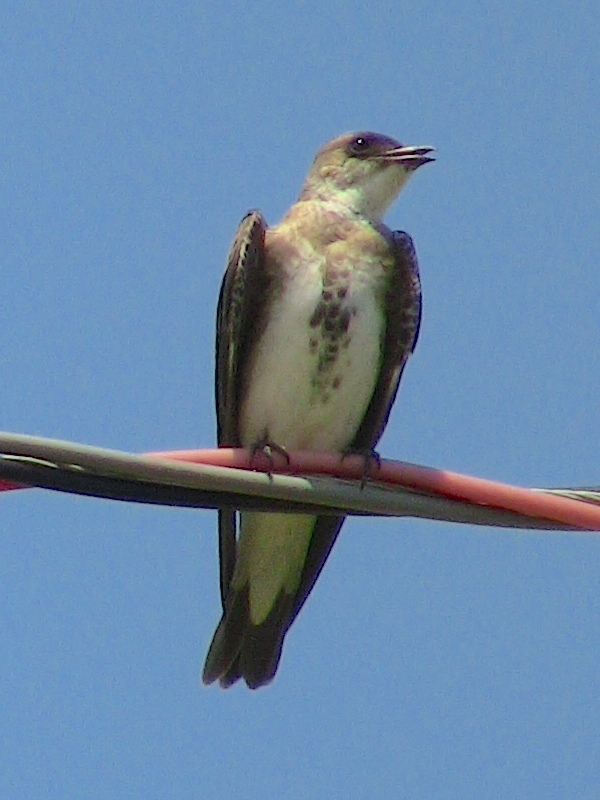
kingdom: Animalia
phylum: Chordata
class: Aves
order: Passeriformes
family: Hirundinidae
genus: Progne
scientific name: Progne tapera
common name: Brown-chested martin
